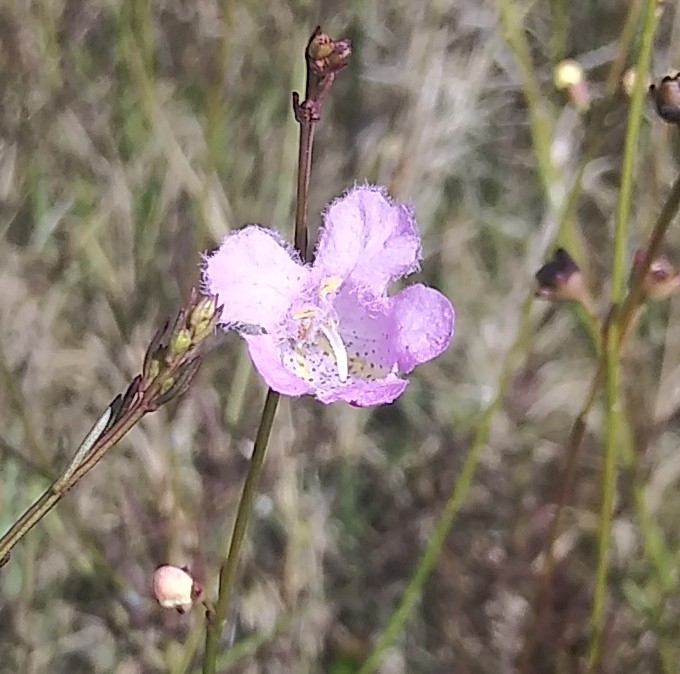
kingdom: Plantae
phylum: Tracheophyta
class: Magnoliopsida
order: Lamiales
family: Orobanchaceae
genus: Agalinis
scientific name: Agalinis maritima
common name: Saltmarsh agalinis
